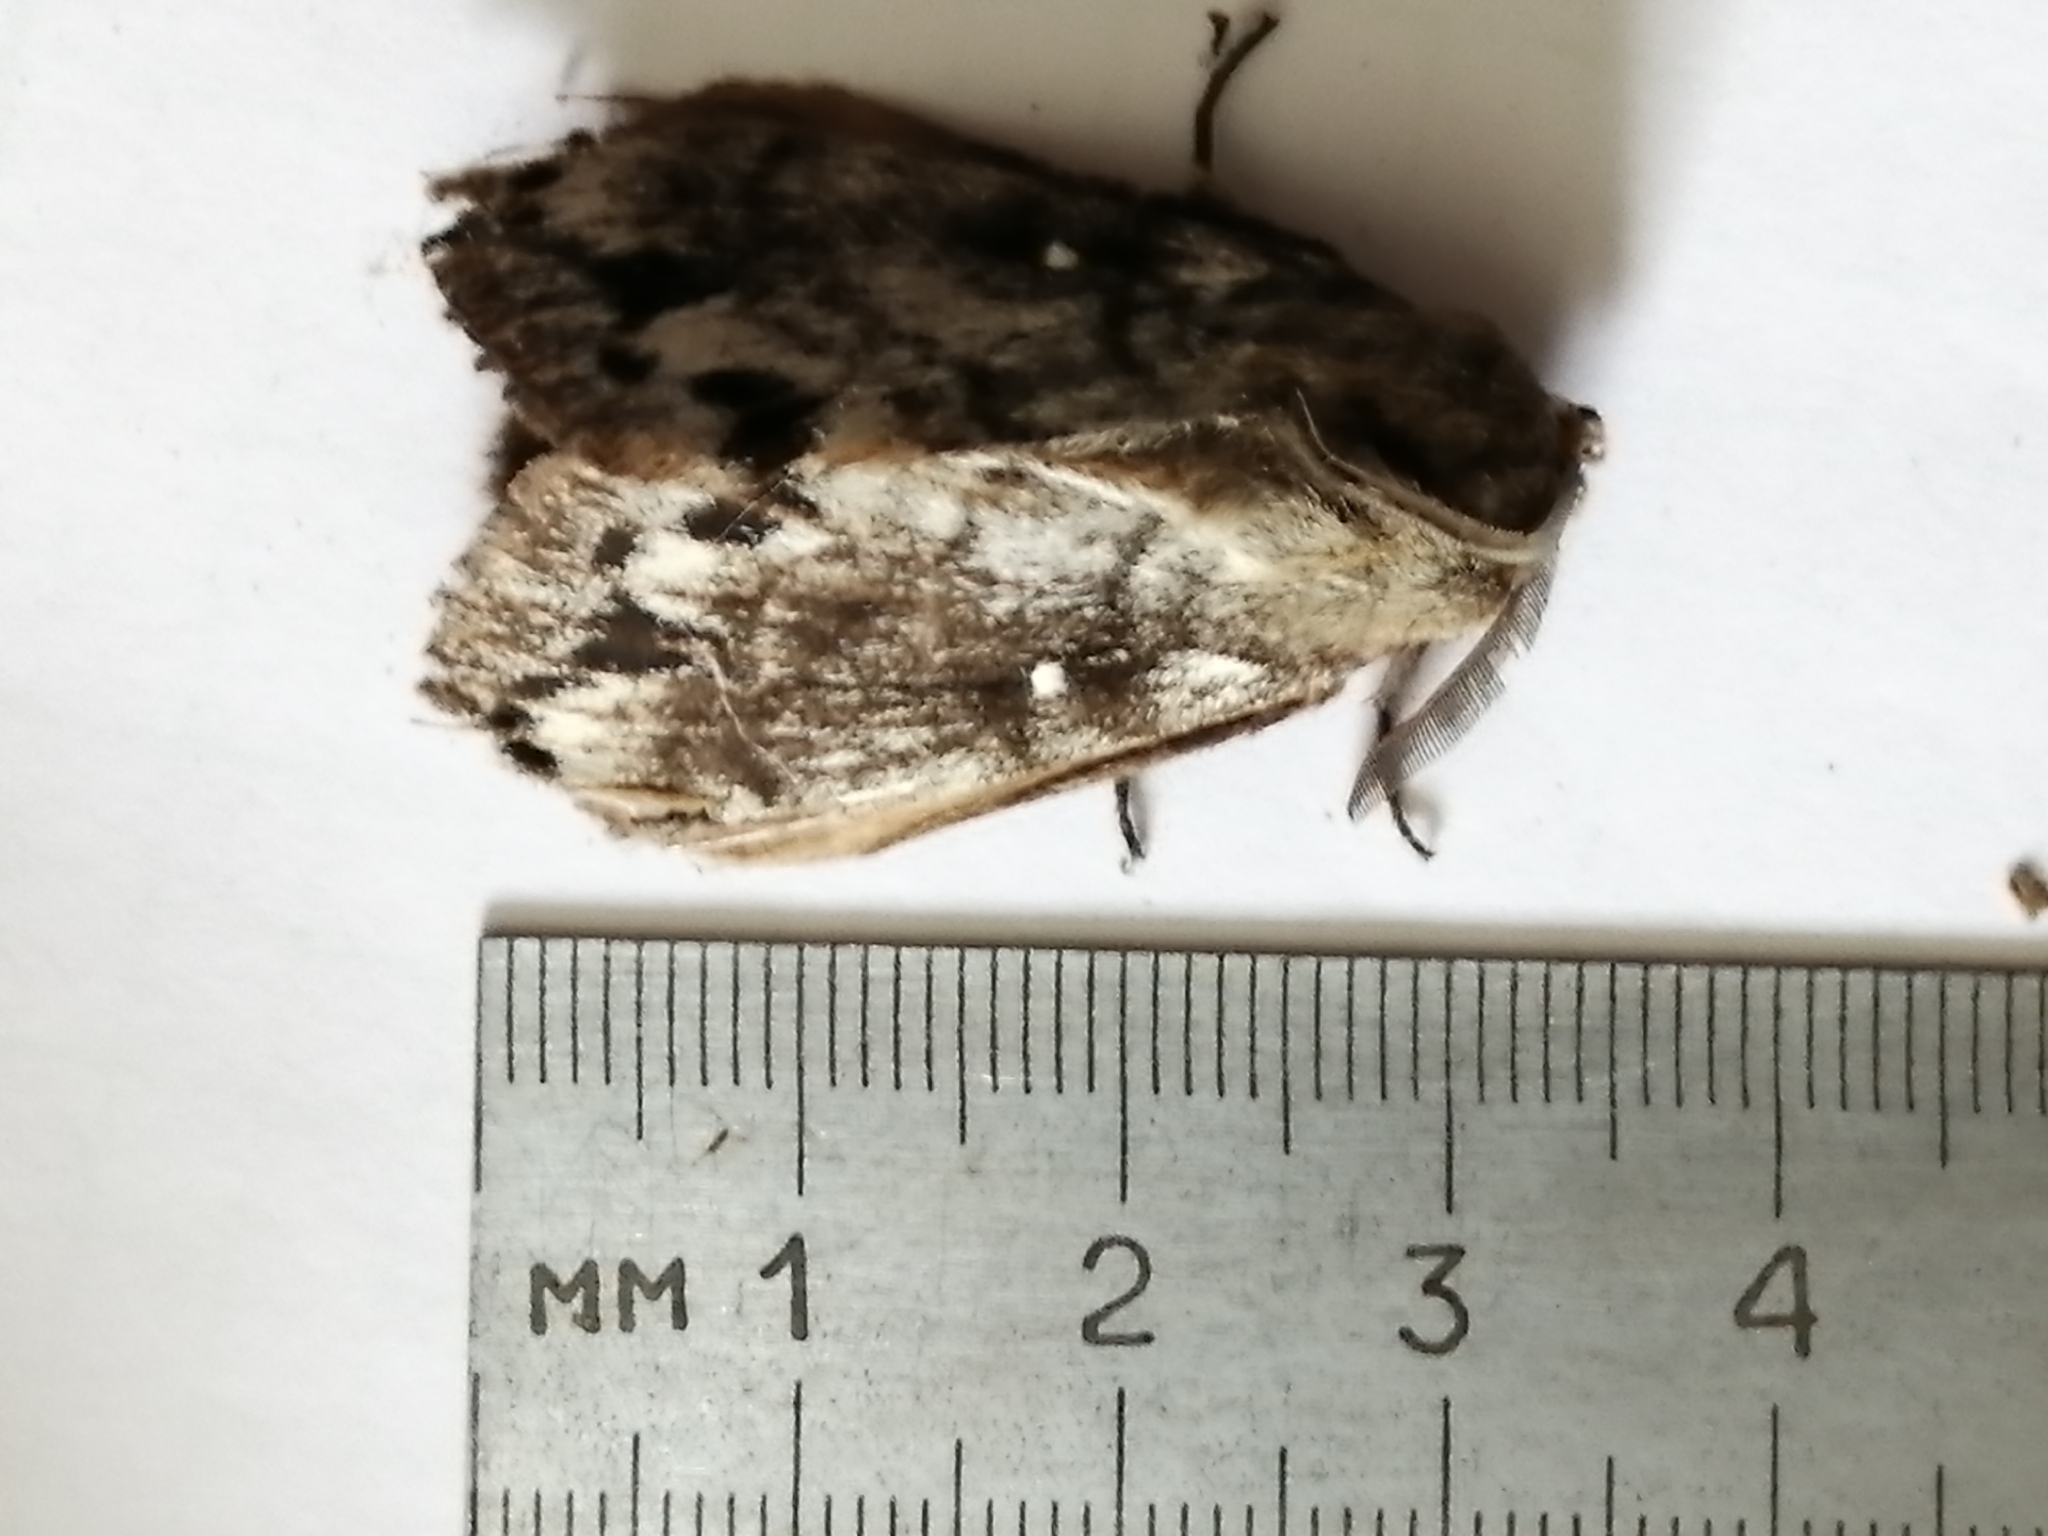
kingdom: Animalia
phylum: Arthropoda
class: Insecta
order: Lepidoptera
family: Lasiocampidae
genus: Dendrolimus
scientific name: Dendrolimus superans
